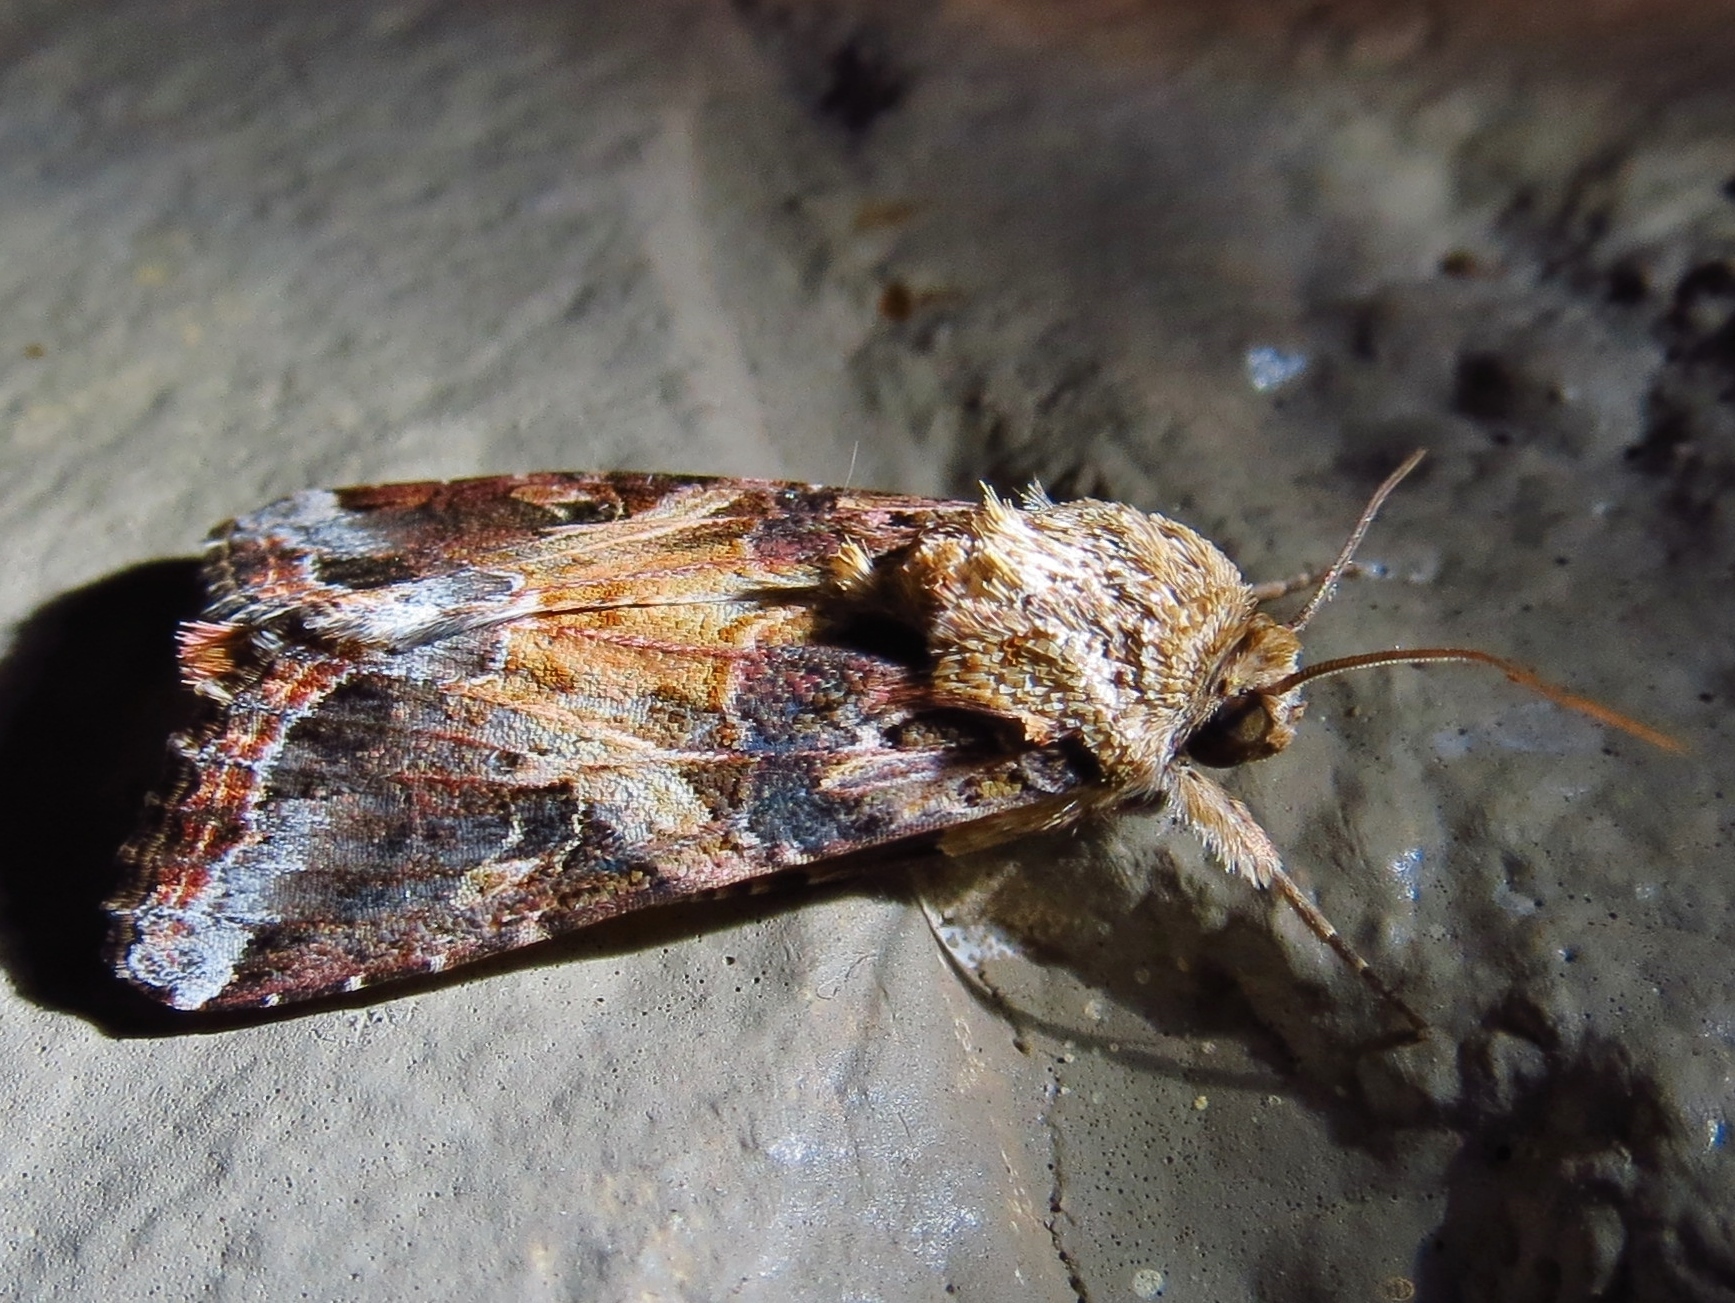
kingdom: Animalia
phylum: Arthropoda
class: Insecta
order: Lepidoptera
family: Noctuidae
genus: Spodoptera
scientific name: Spodoptera ornithogalli
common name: Yellow-striped armyworm
